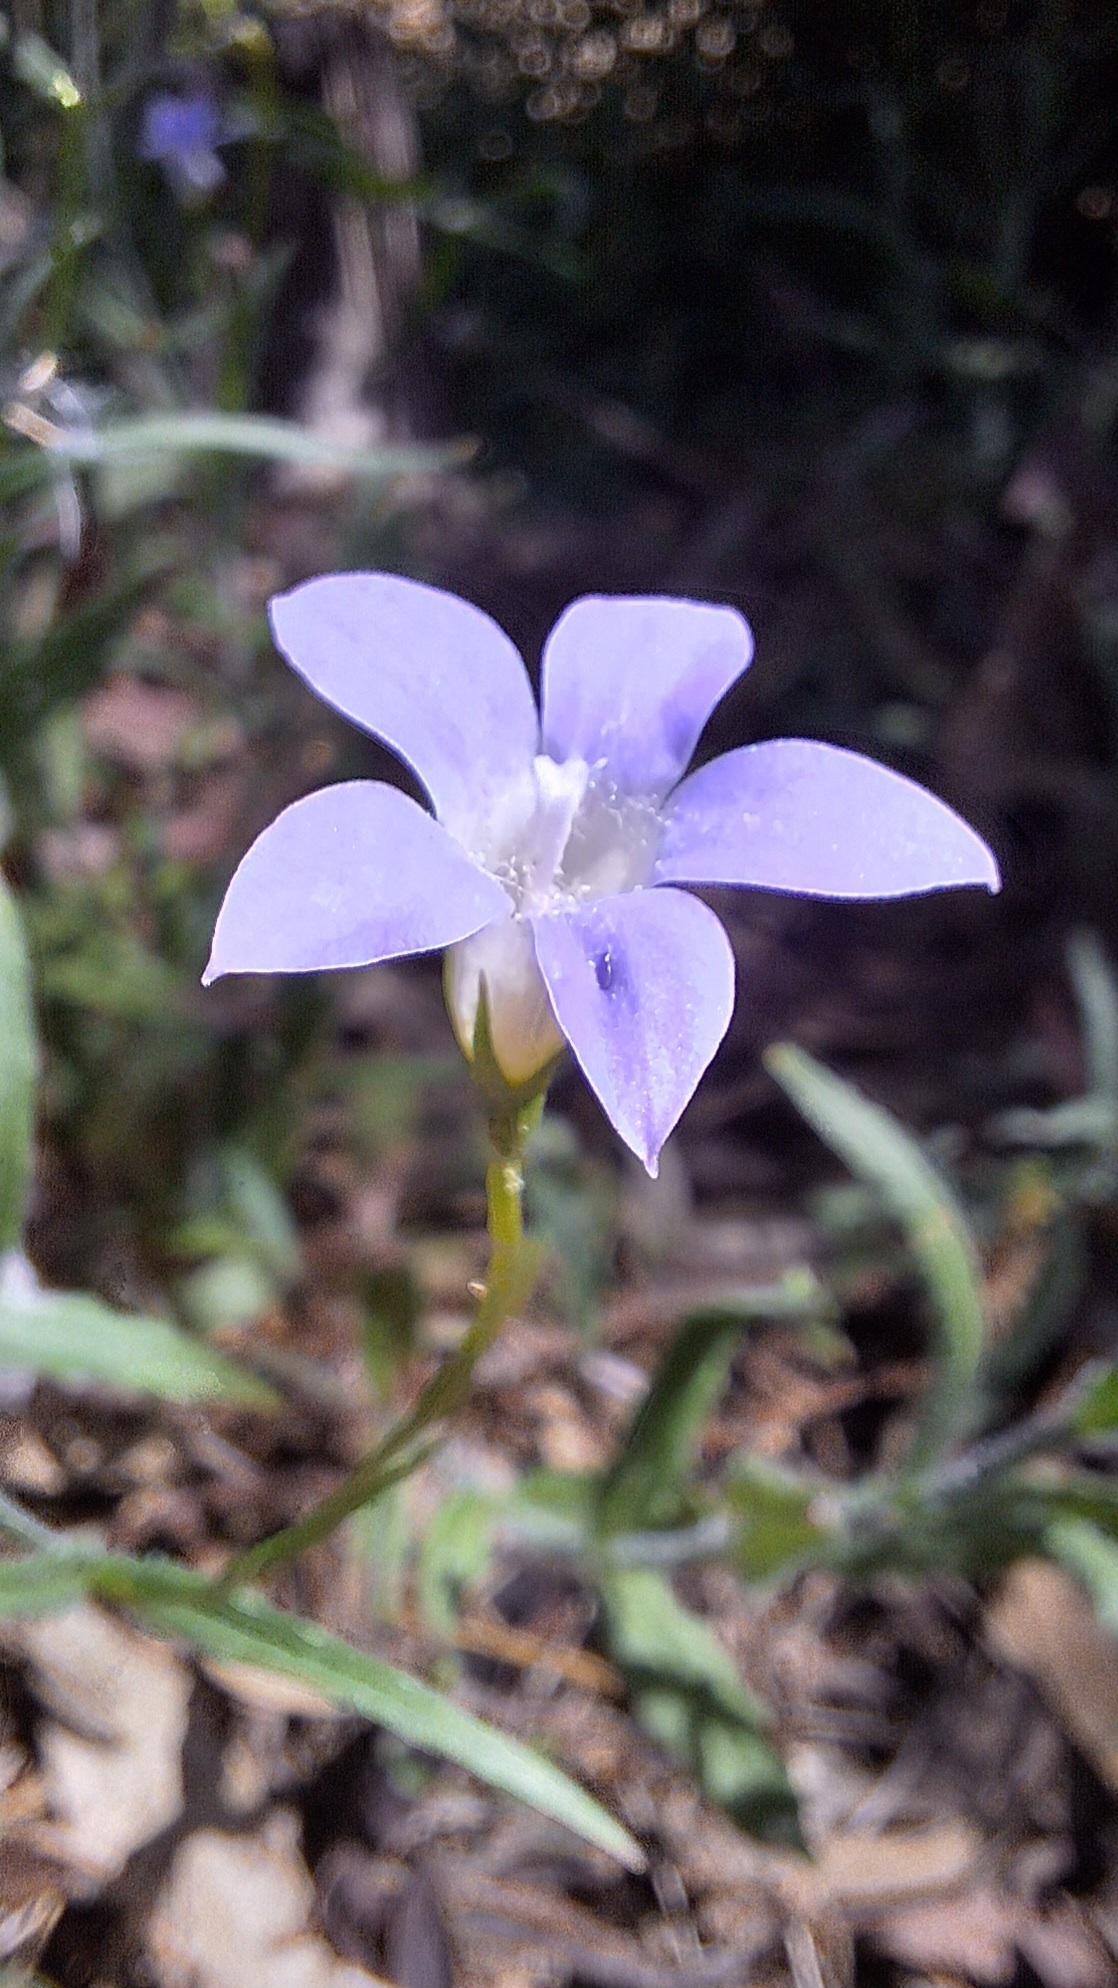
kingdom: Plantae
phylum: Tracheophyta
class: Magnoliopsida
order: Asterales
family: Campanulaceae
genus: Wahlenbergia
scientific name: Wahlenbergia stricta
